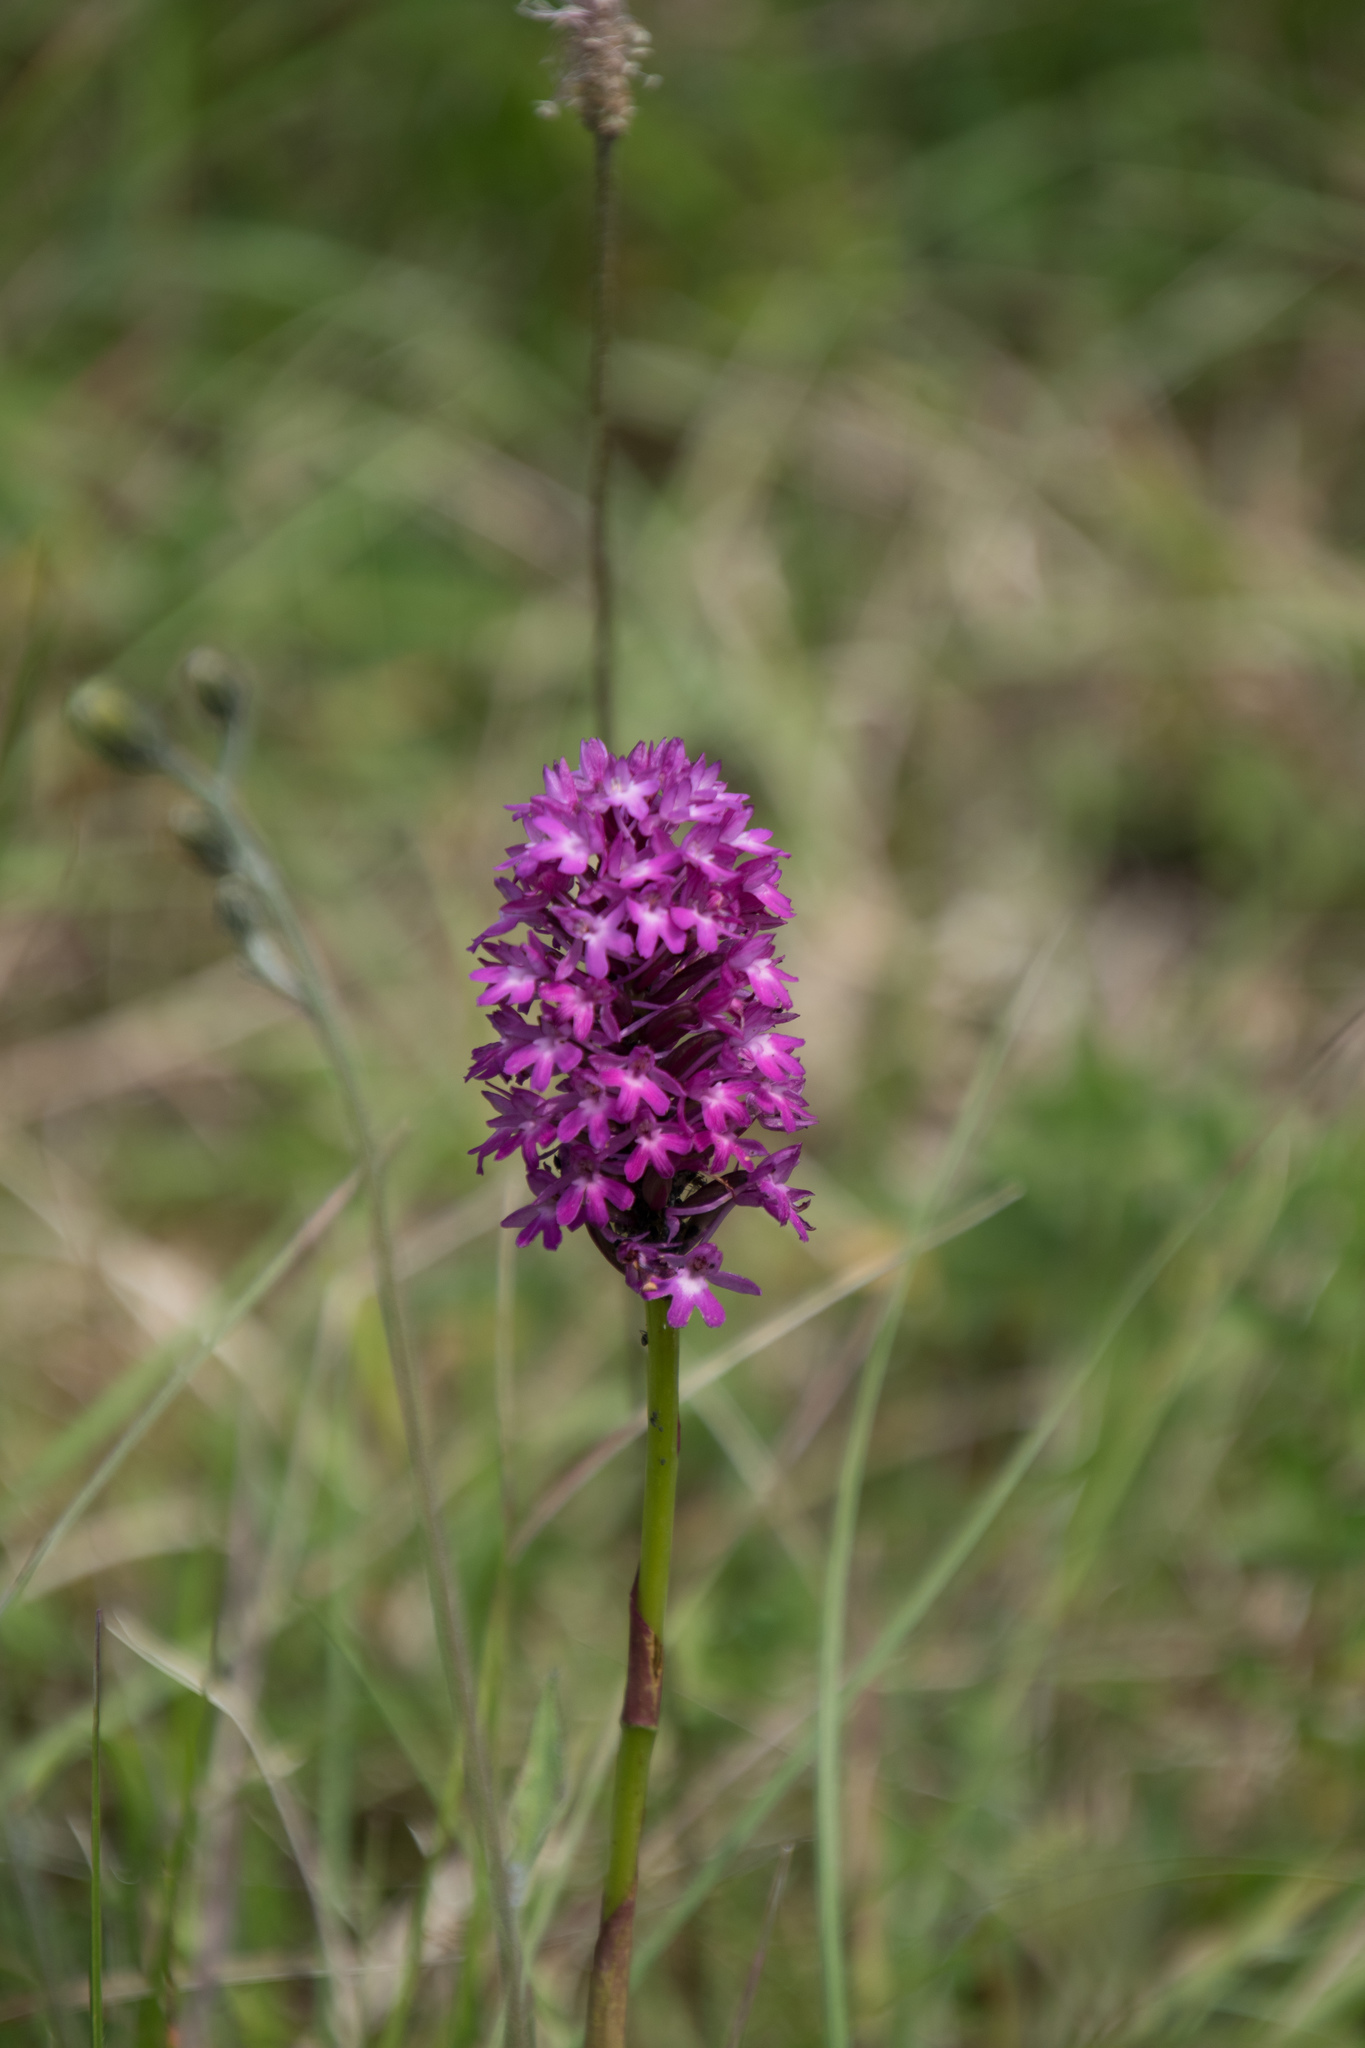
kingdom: Plantae
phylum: Tracheophyta
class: Liliopsida
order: Asparagales
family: Orchidaceae
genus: Anacamptis
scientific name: Anacamptis pyramidalis
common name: Pyramidal orchid
